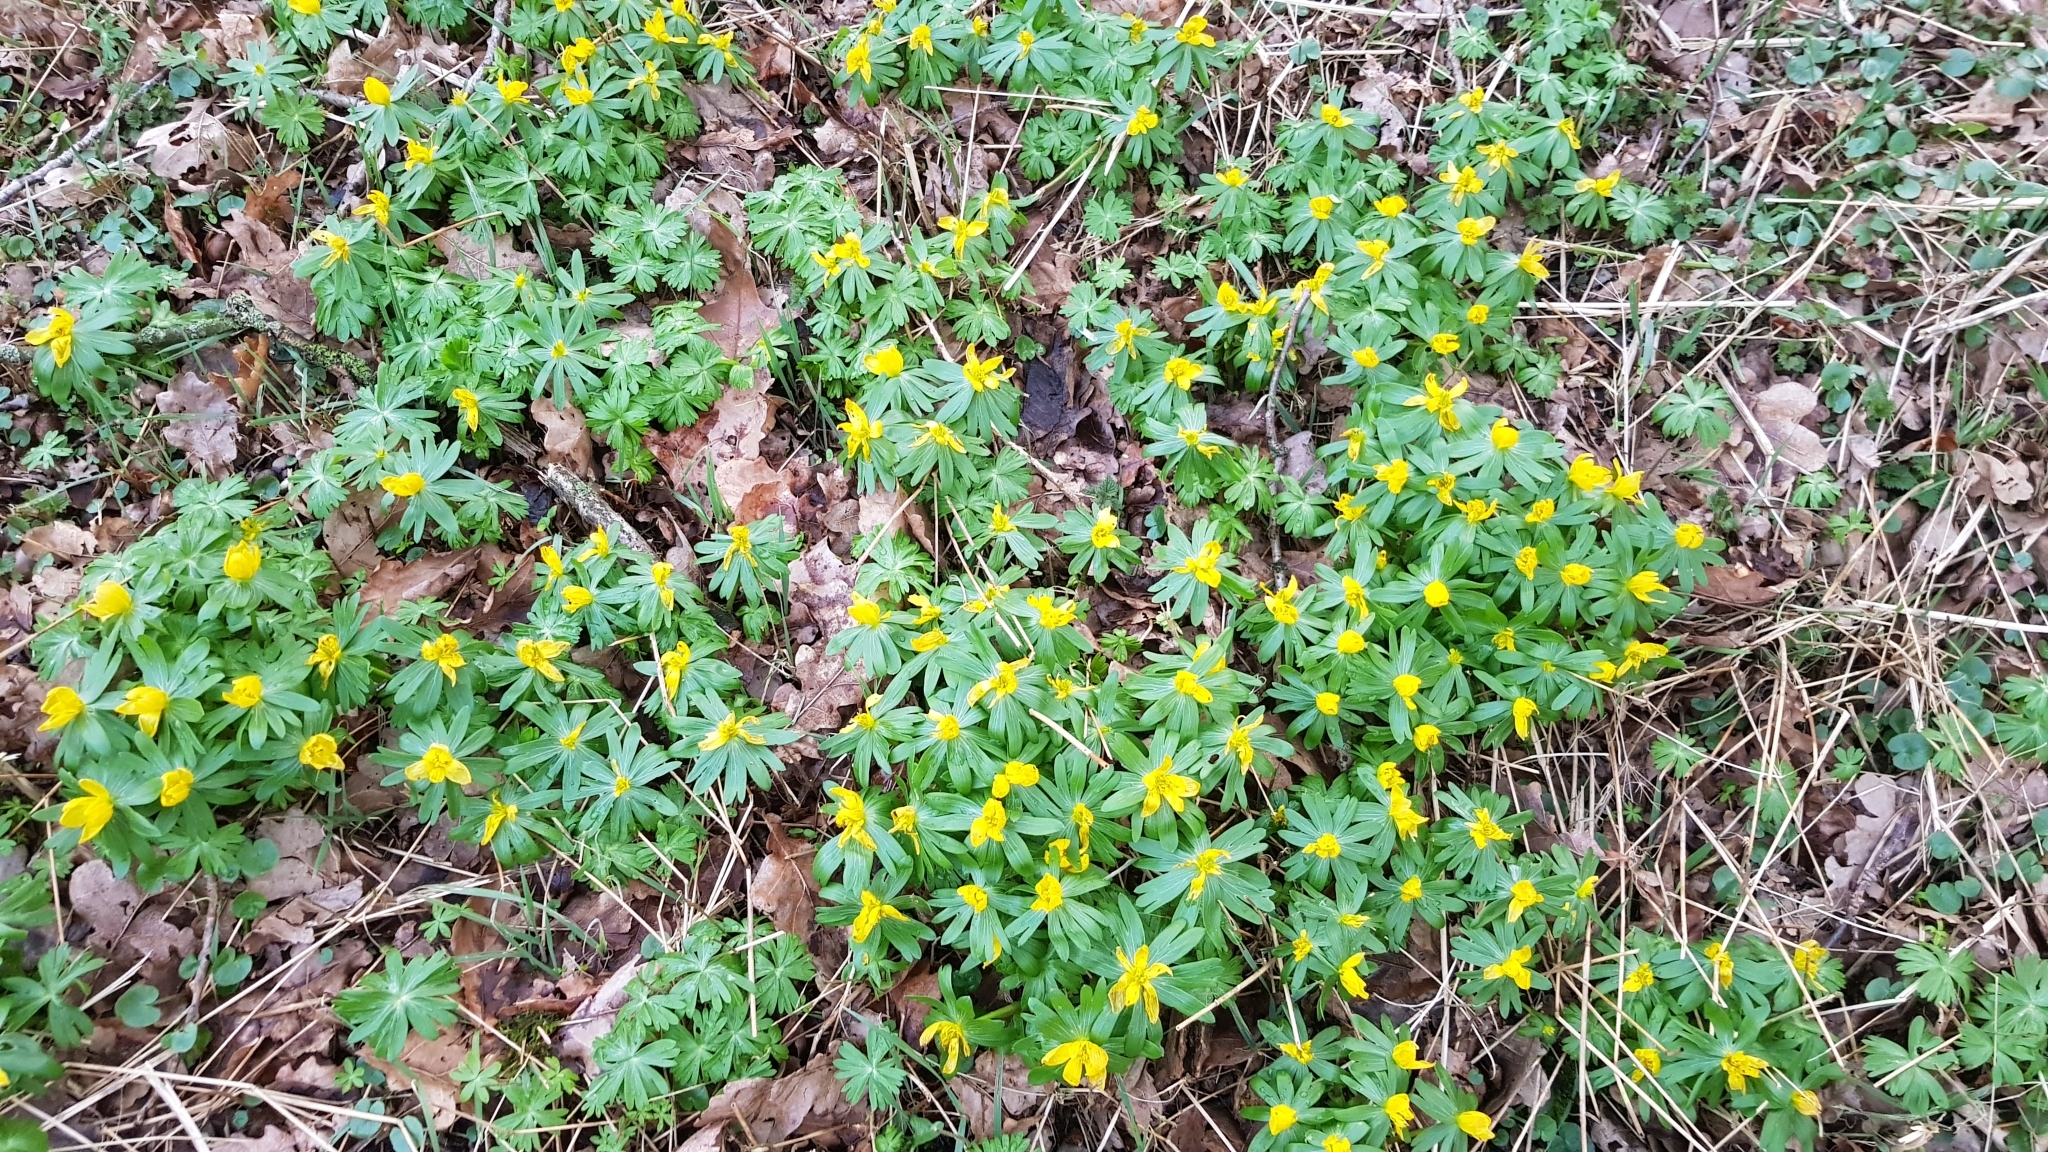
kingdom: Plantae
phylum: Tracheophyta
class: Magnoliopsida
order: Ranunculales
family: Ranunculaceae
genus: Eranthis
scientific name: Eranthis hyemalis
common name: Winter aconite
